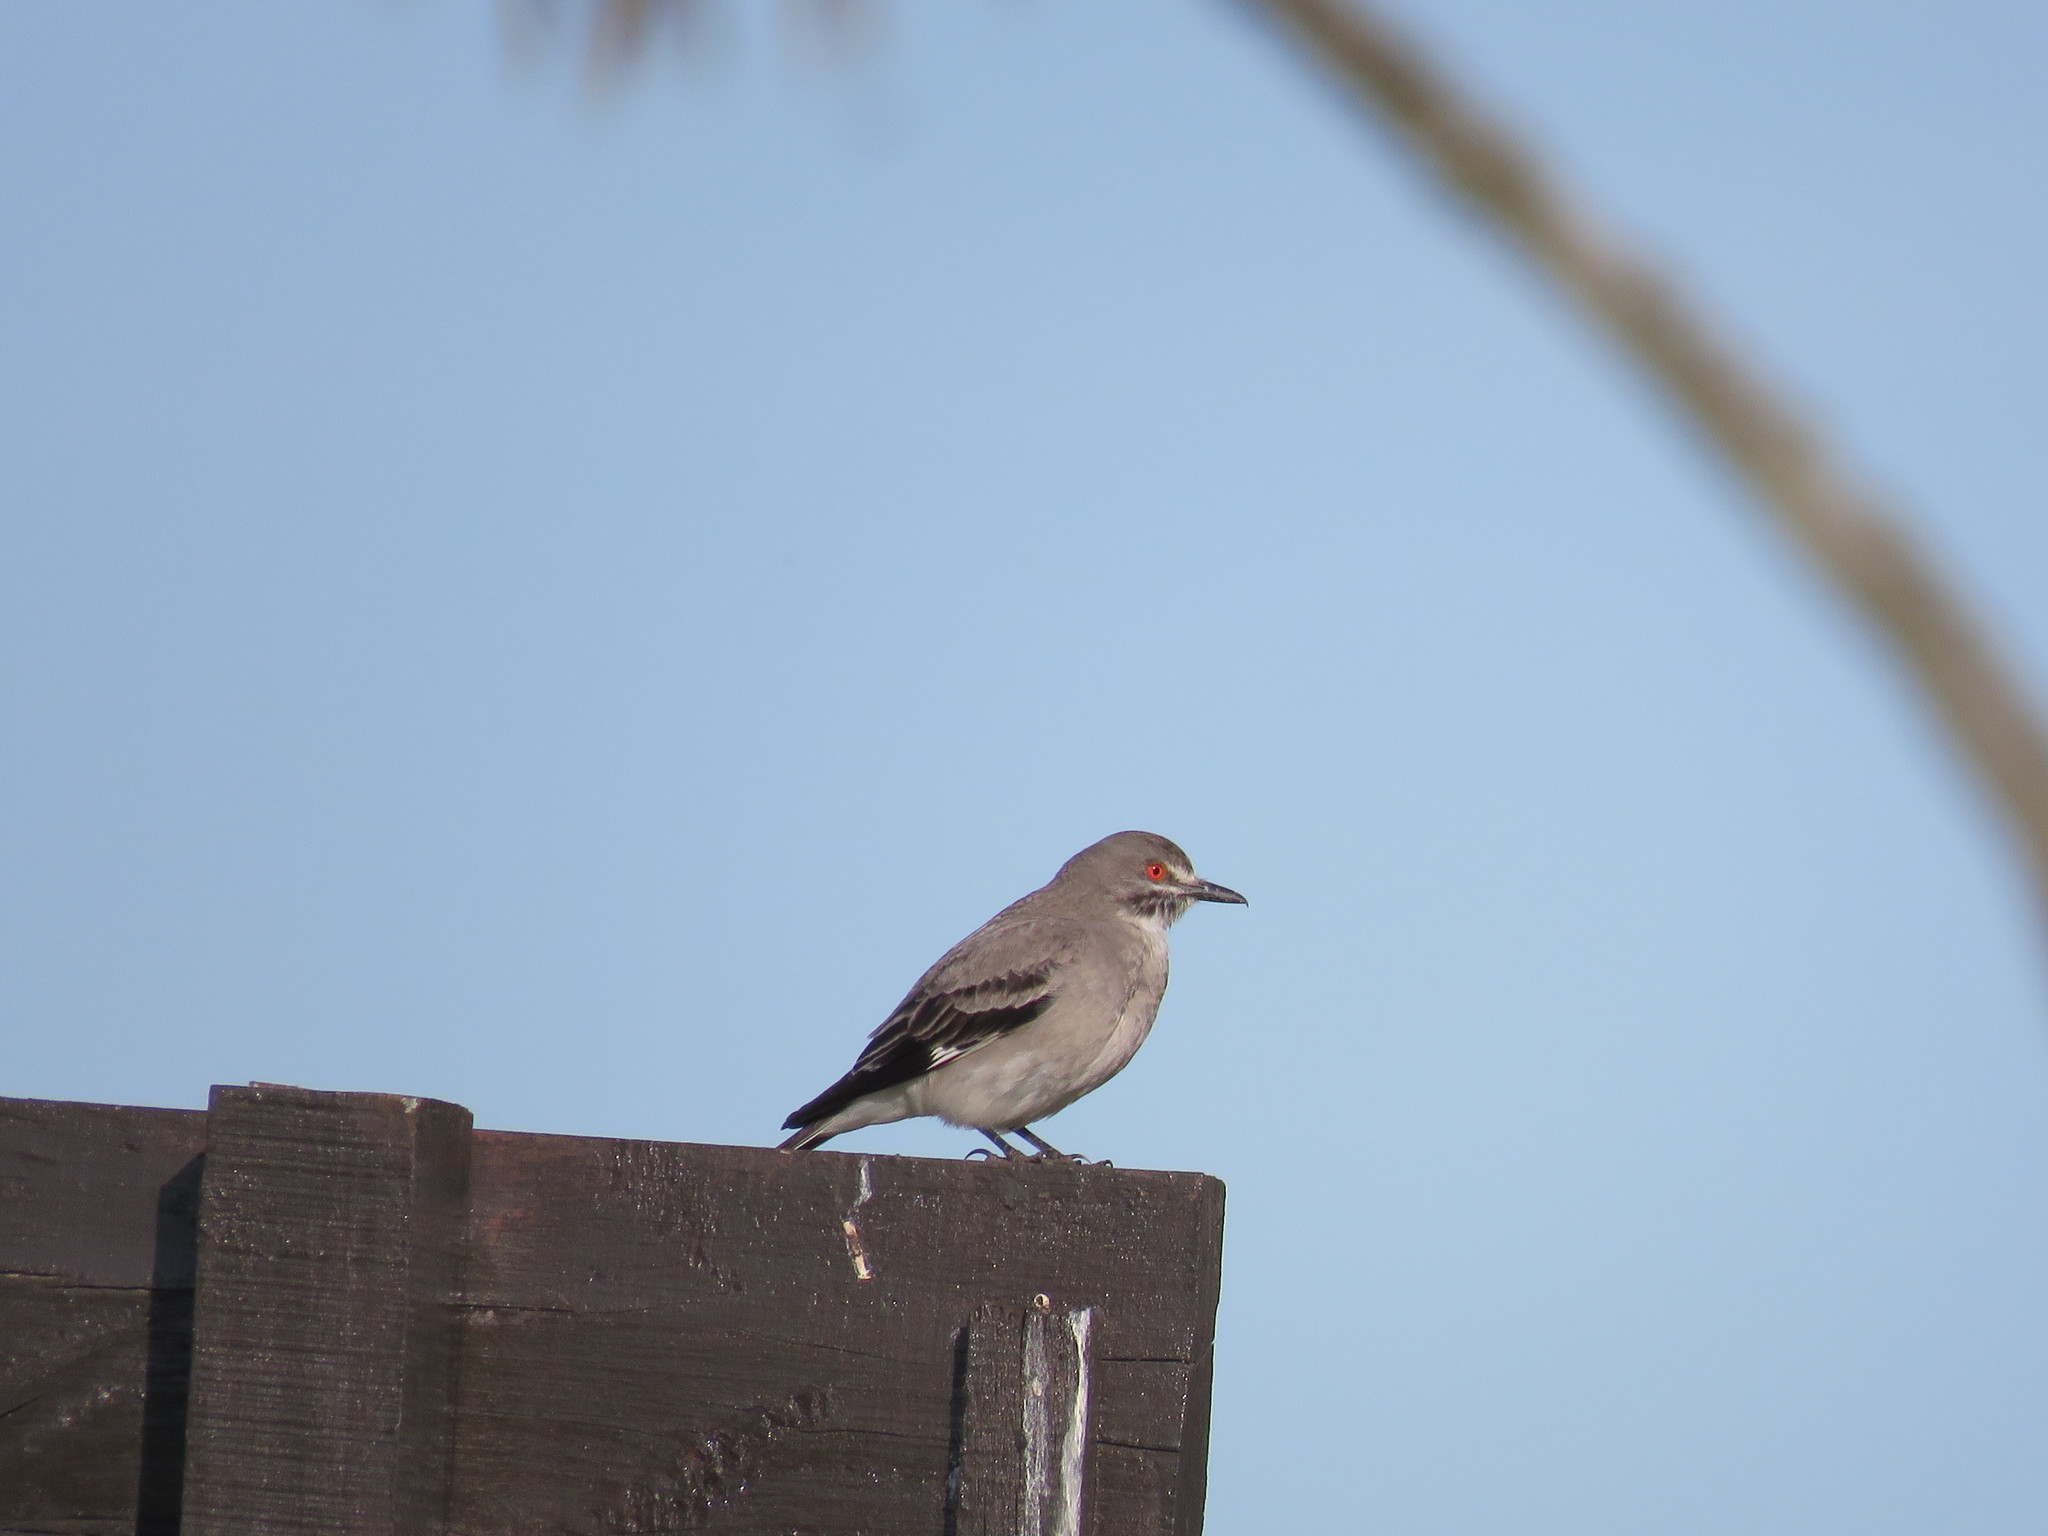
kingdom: Animalia
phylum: Chordata
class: Aves
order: Passeriformes
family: Tyrannidae
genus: Xolmis
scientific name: Xolmis cinereus
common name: Grey monjita
